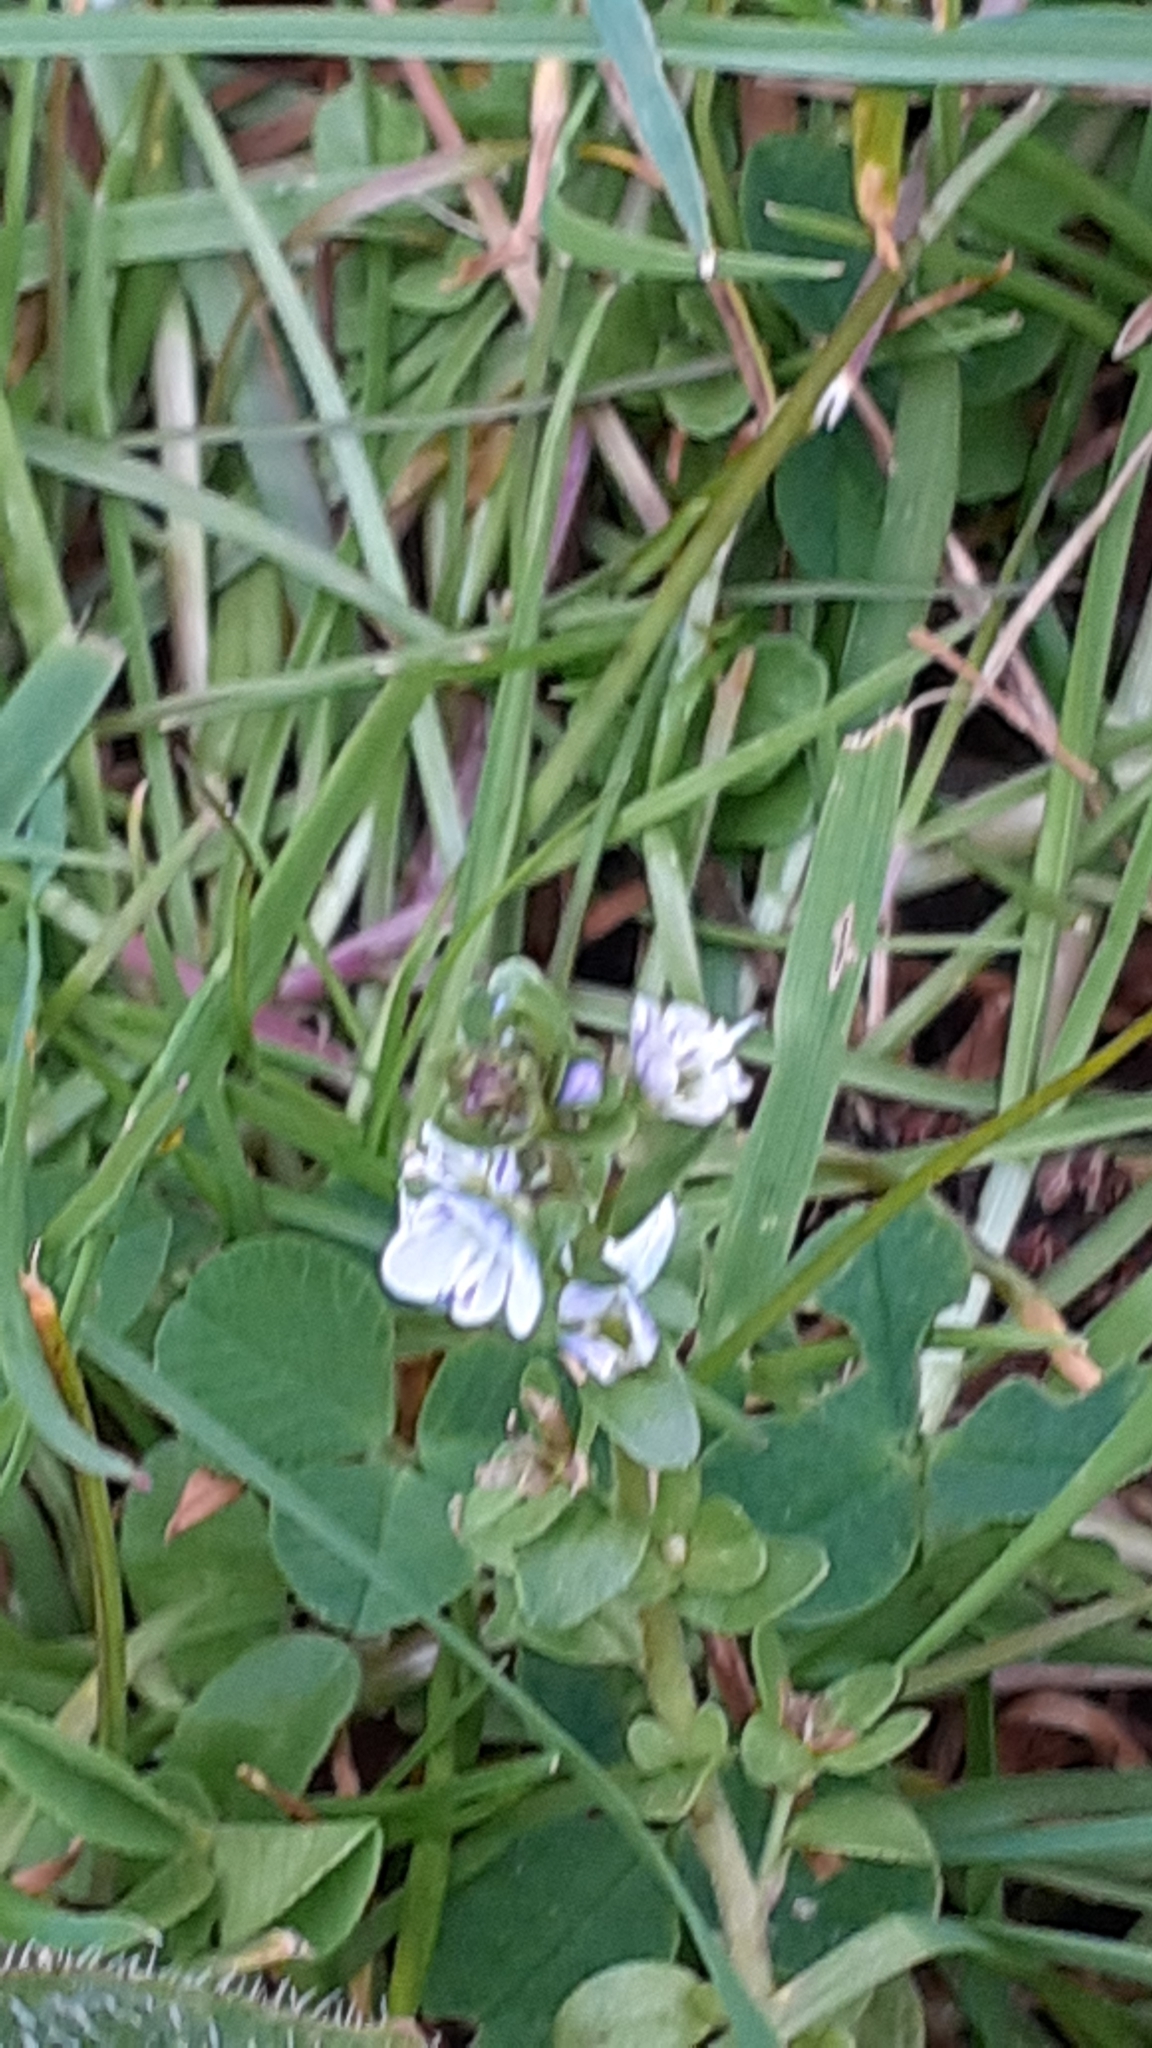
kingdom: Plantae
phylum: Tracheophyta
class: Magnoliopsida
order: Lamiales
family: Plantaginaceae
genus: Veronica
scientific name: Veronica serpyllifolia
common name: Thyme-leaved speedwell
